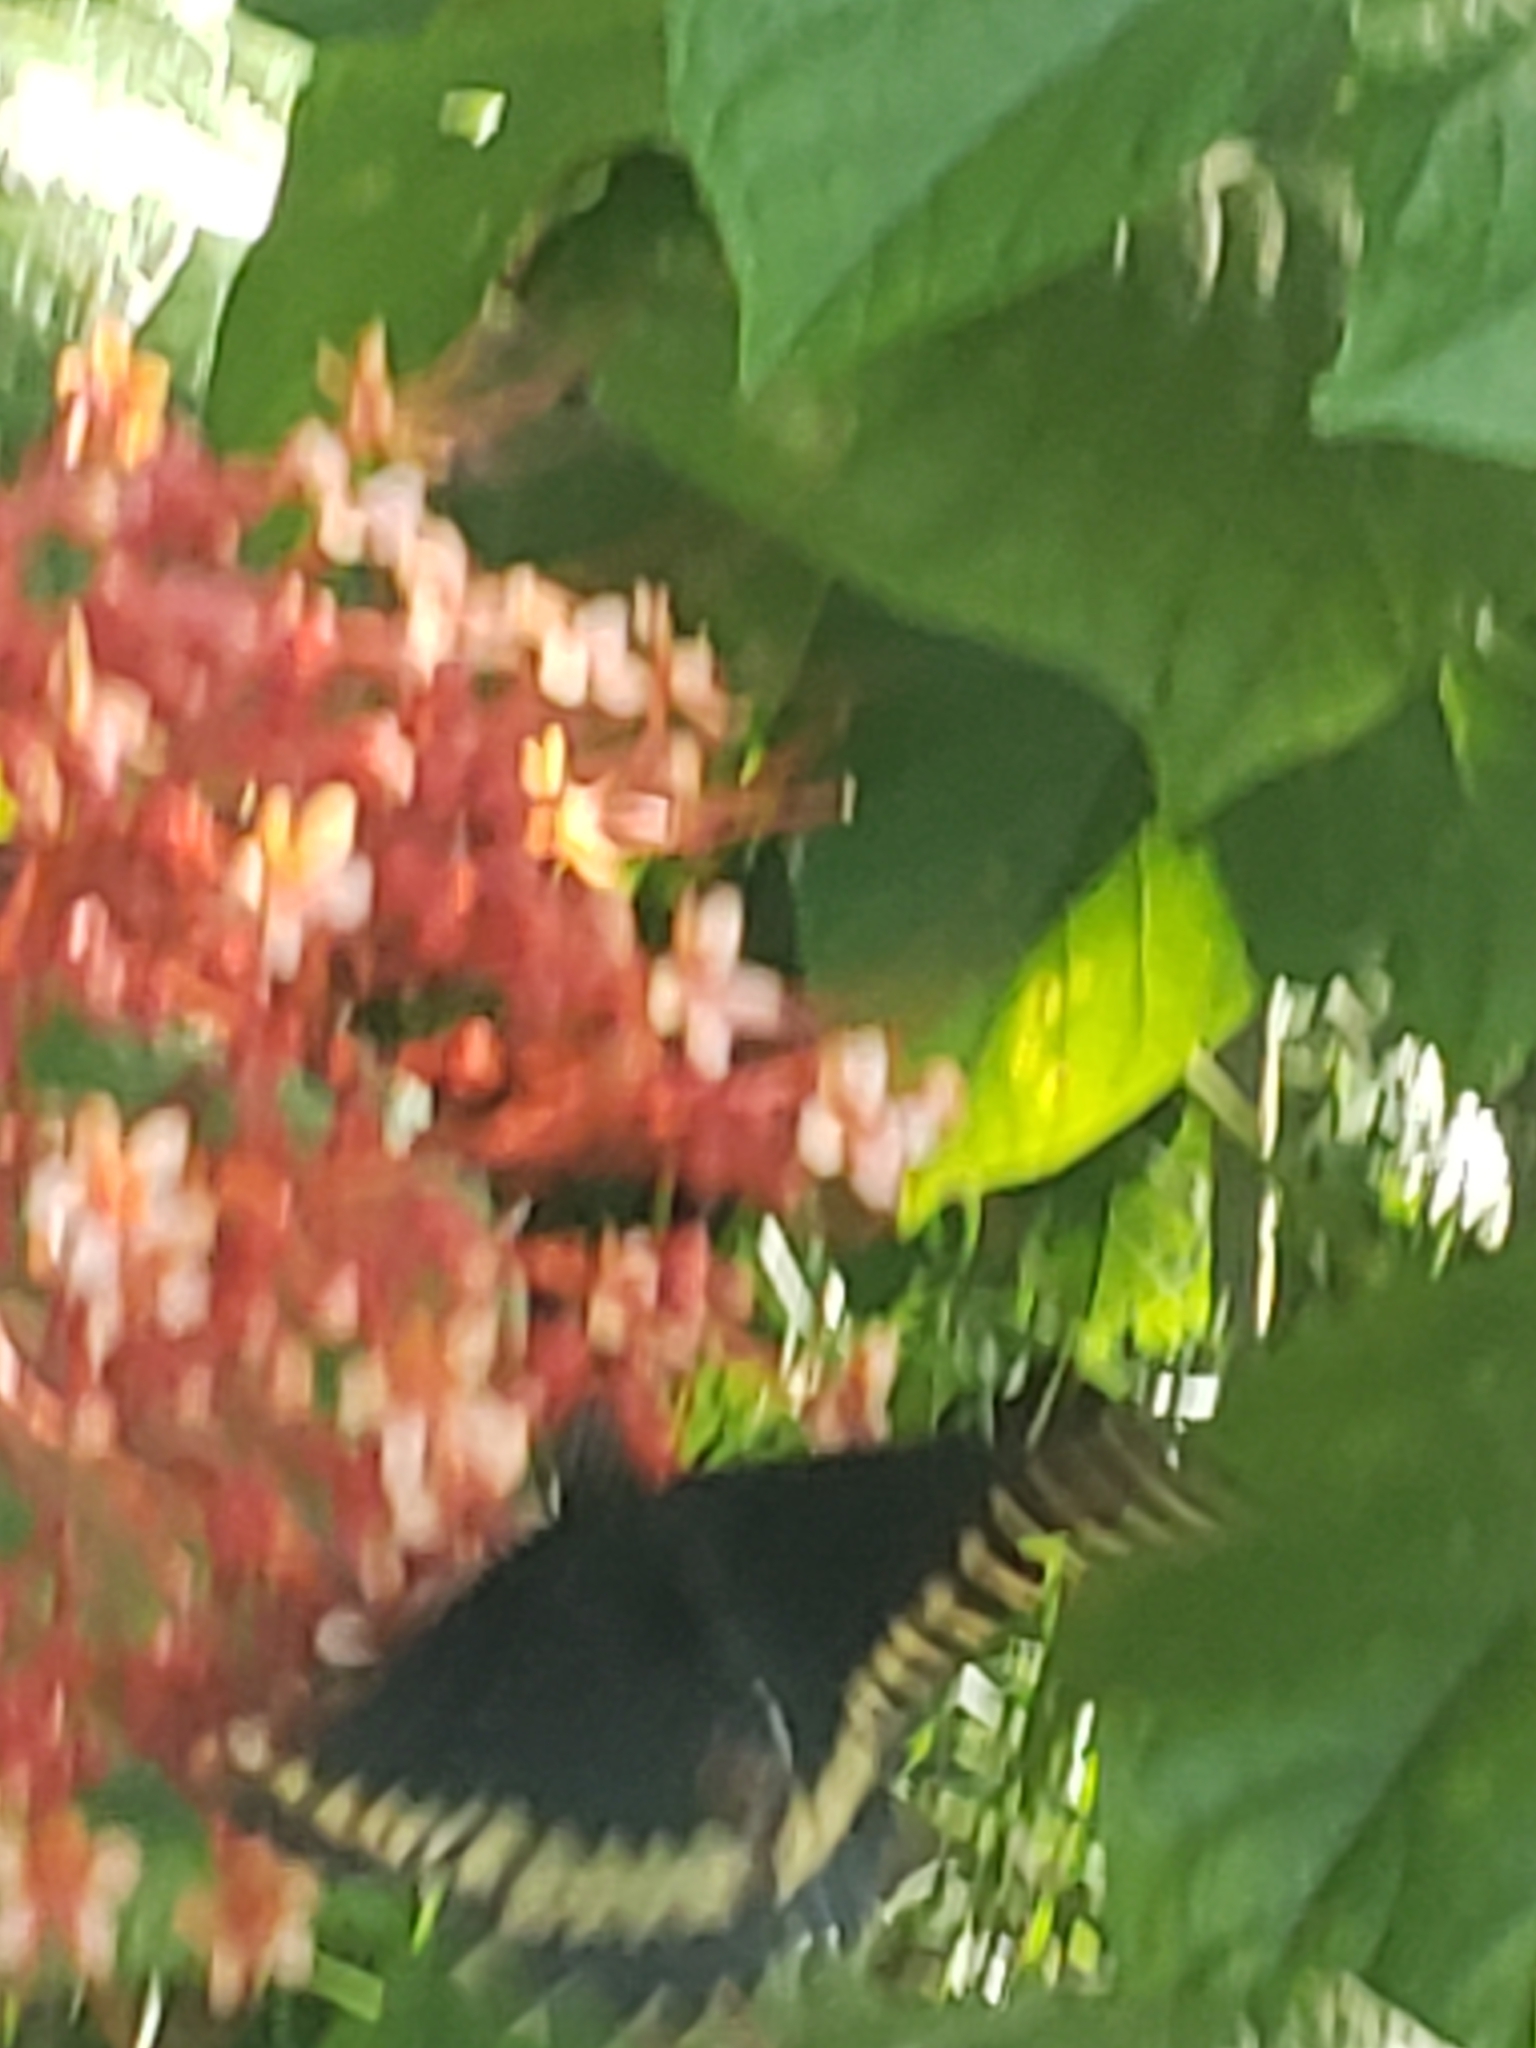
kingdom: Animalia
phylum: Arthropoda
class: Insecta
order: Lepidoptera
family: Papilionidae
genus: Battus
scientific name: Battus polydamas
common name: Polydamas swallowtail
